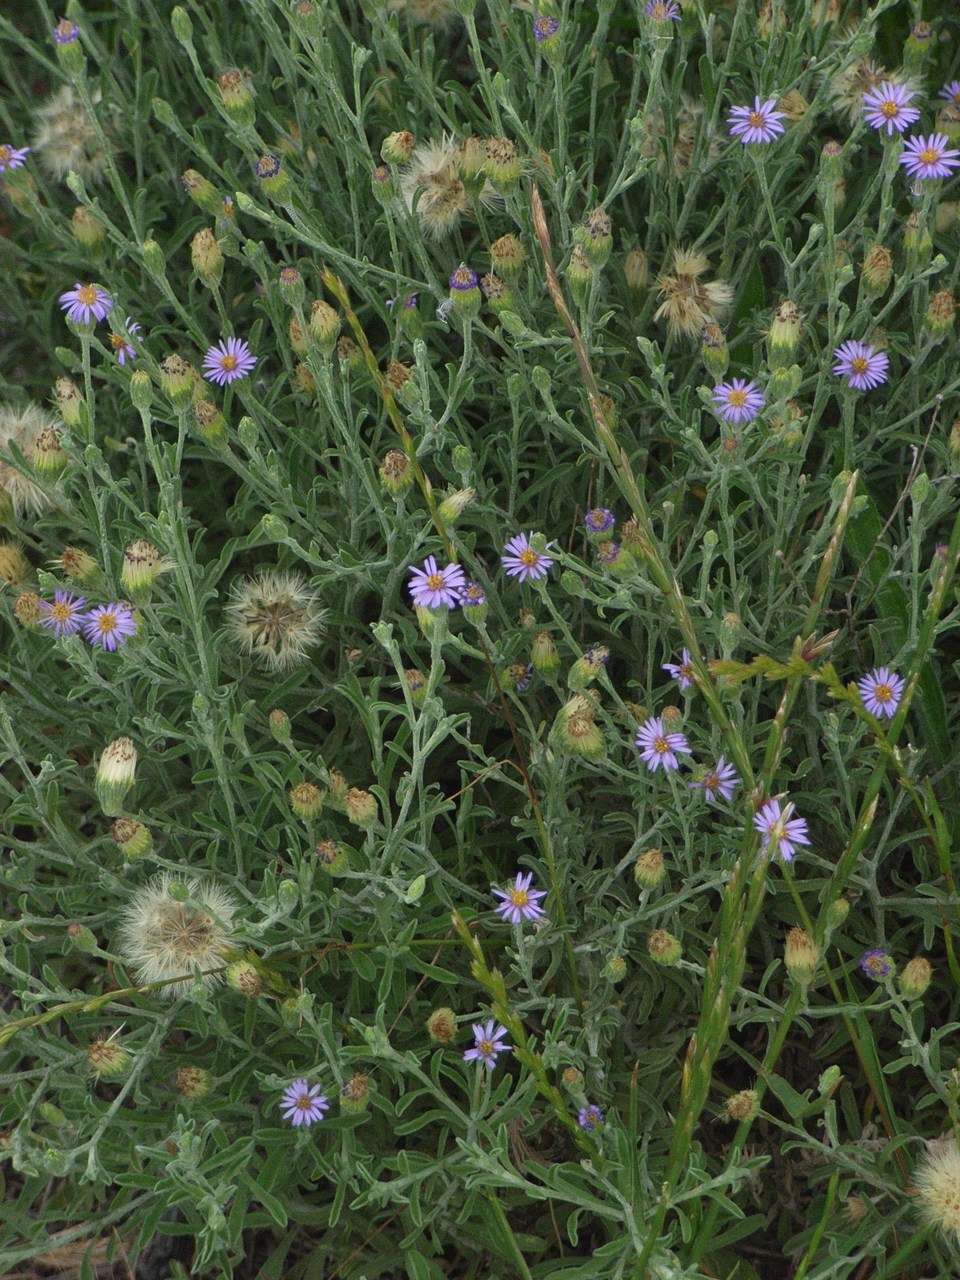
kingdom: Plantae
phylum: Tracheophyta
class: Magnoliopsida
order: Asterales
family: Asteraceae
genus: Vittadinia
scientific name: Vittadinia gracilis
